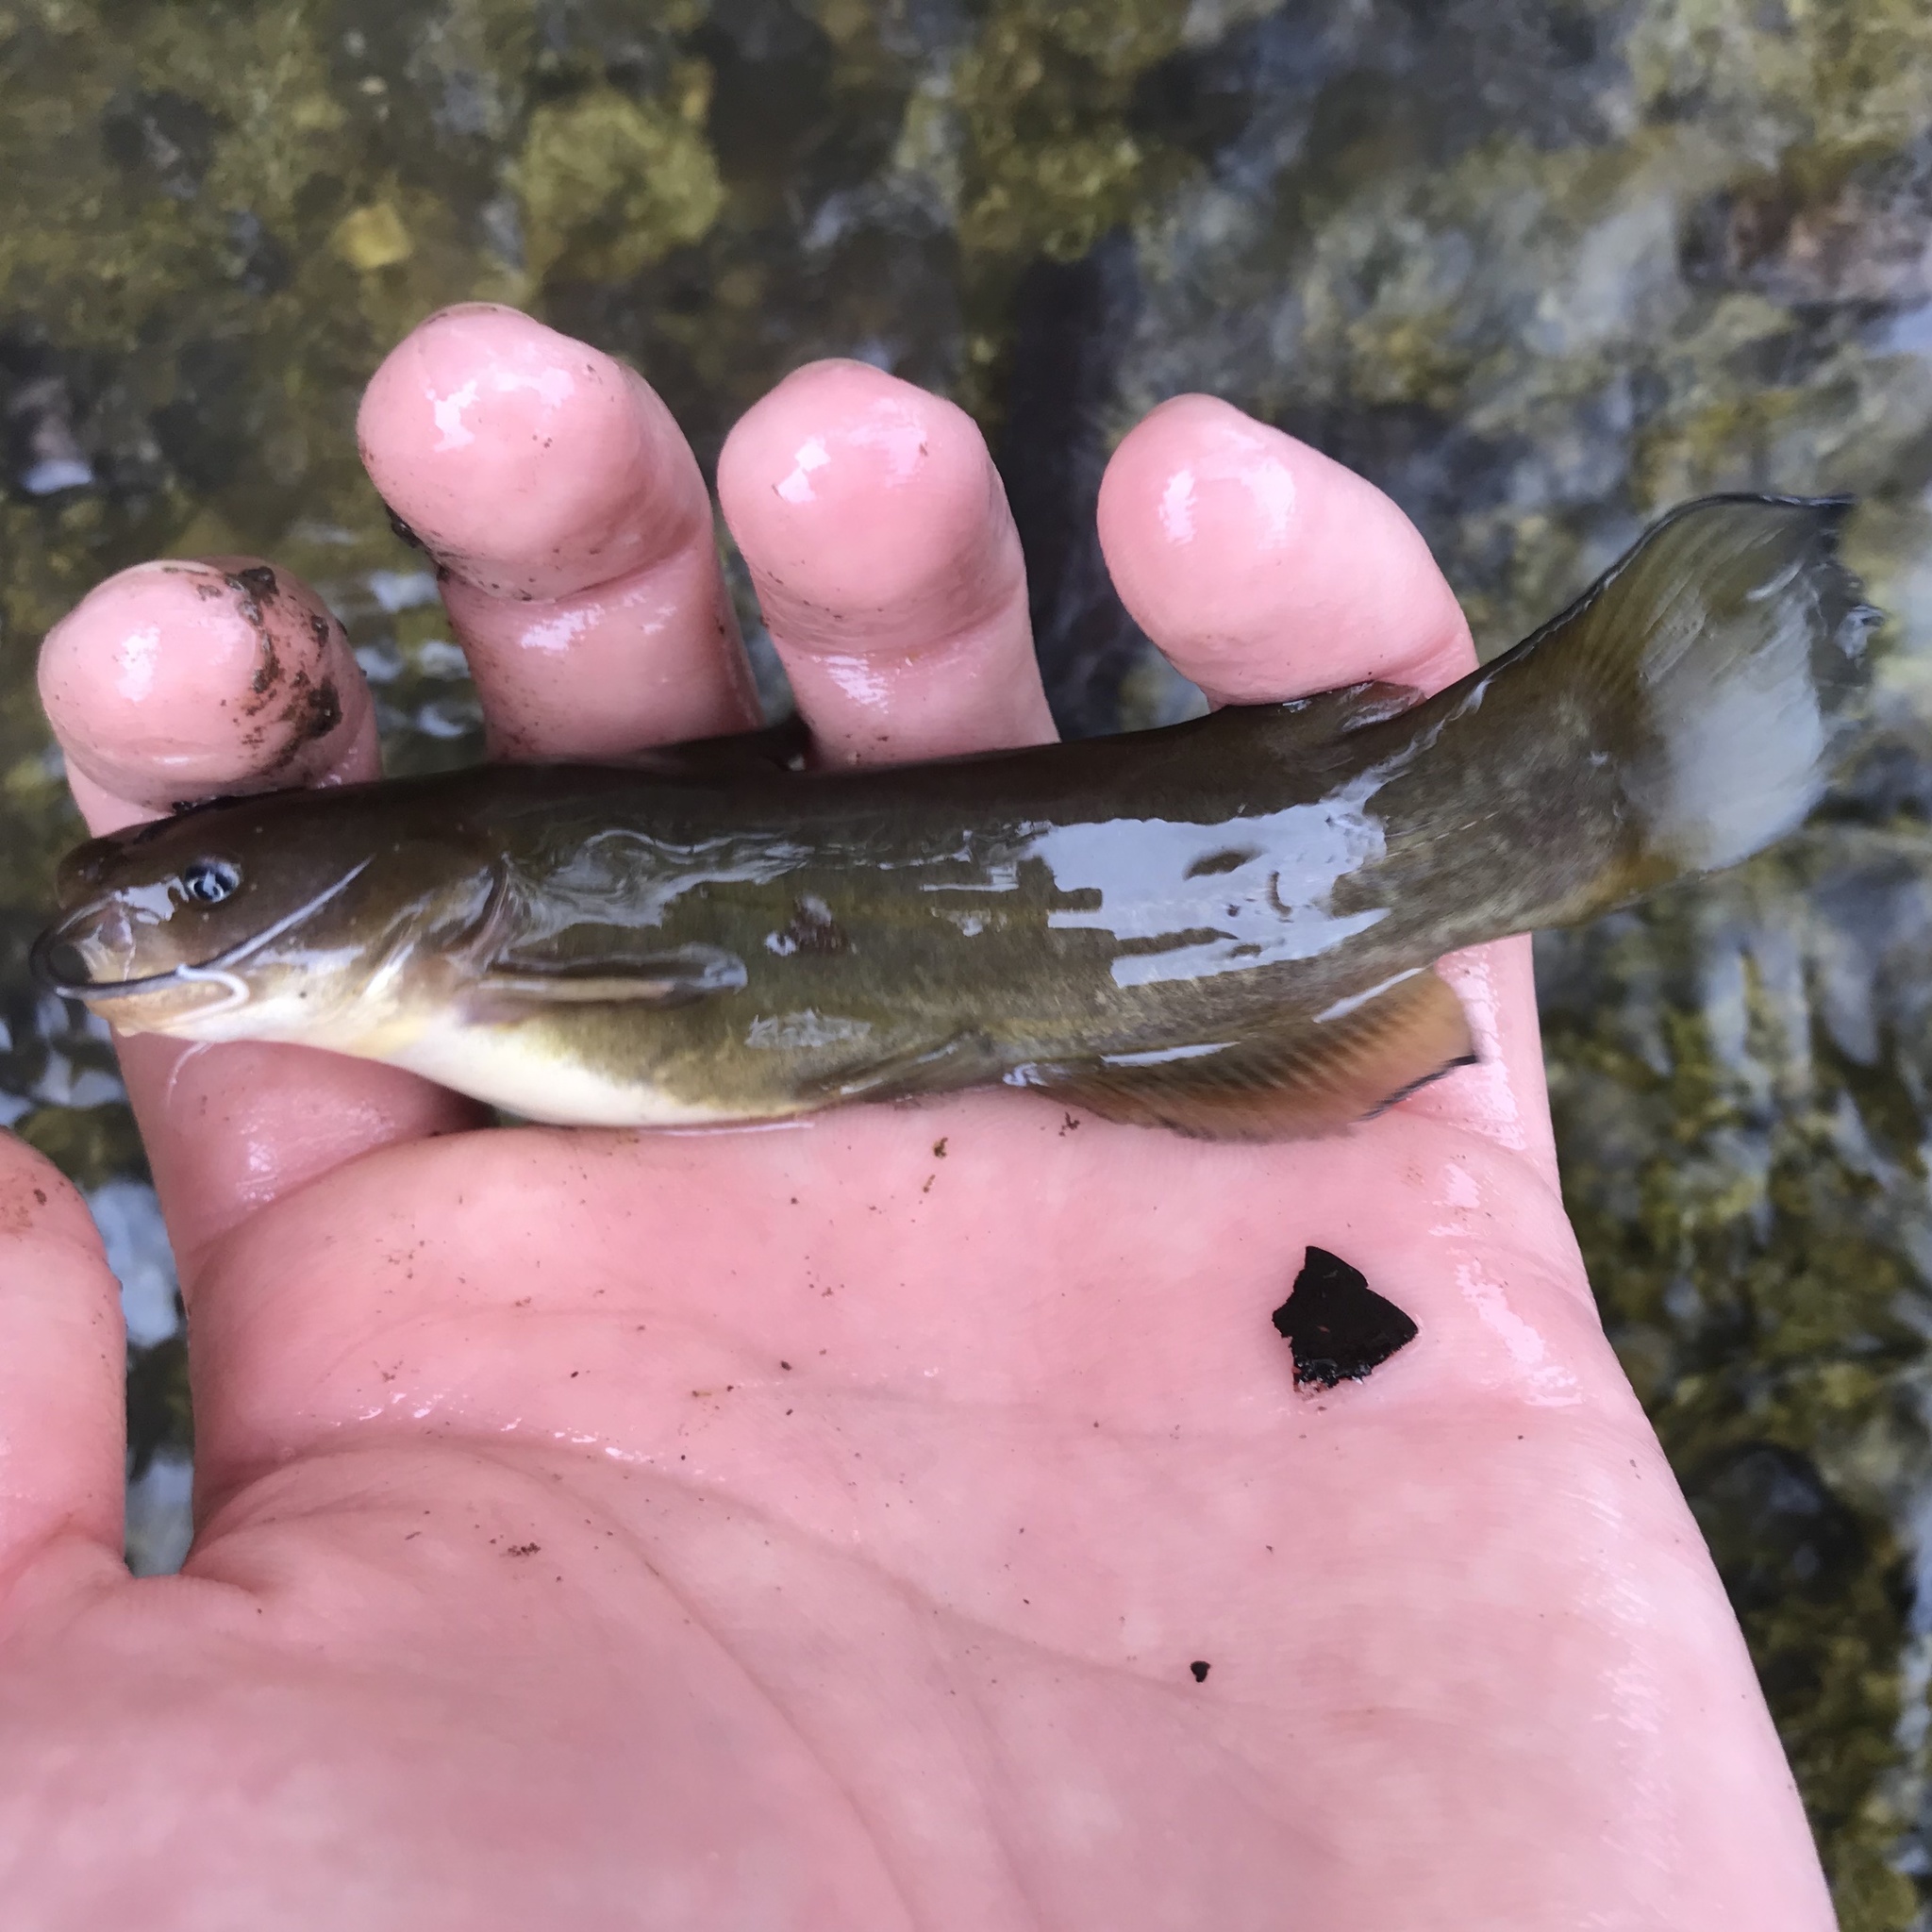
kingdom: Animalia
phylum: Chordata
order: Siluriformes
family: Ictaluridae
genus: Ameiurus
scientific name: Ameiurus natalis
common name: Yellow bullhead
